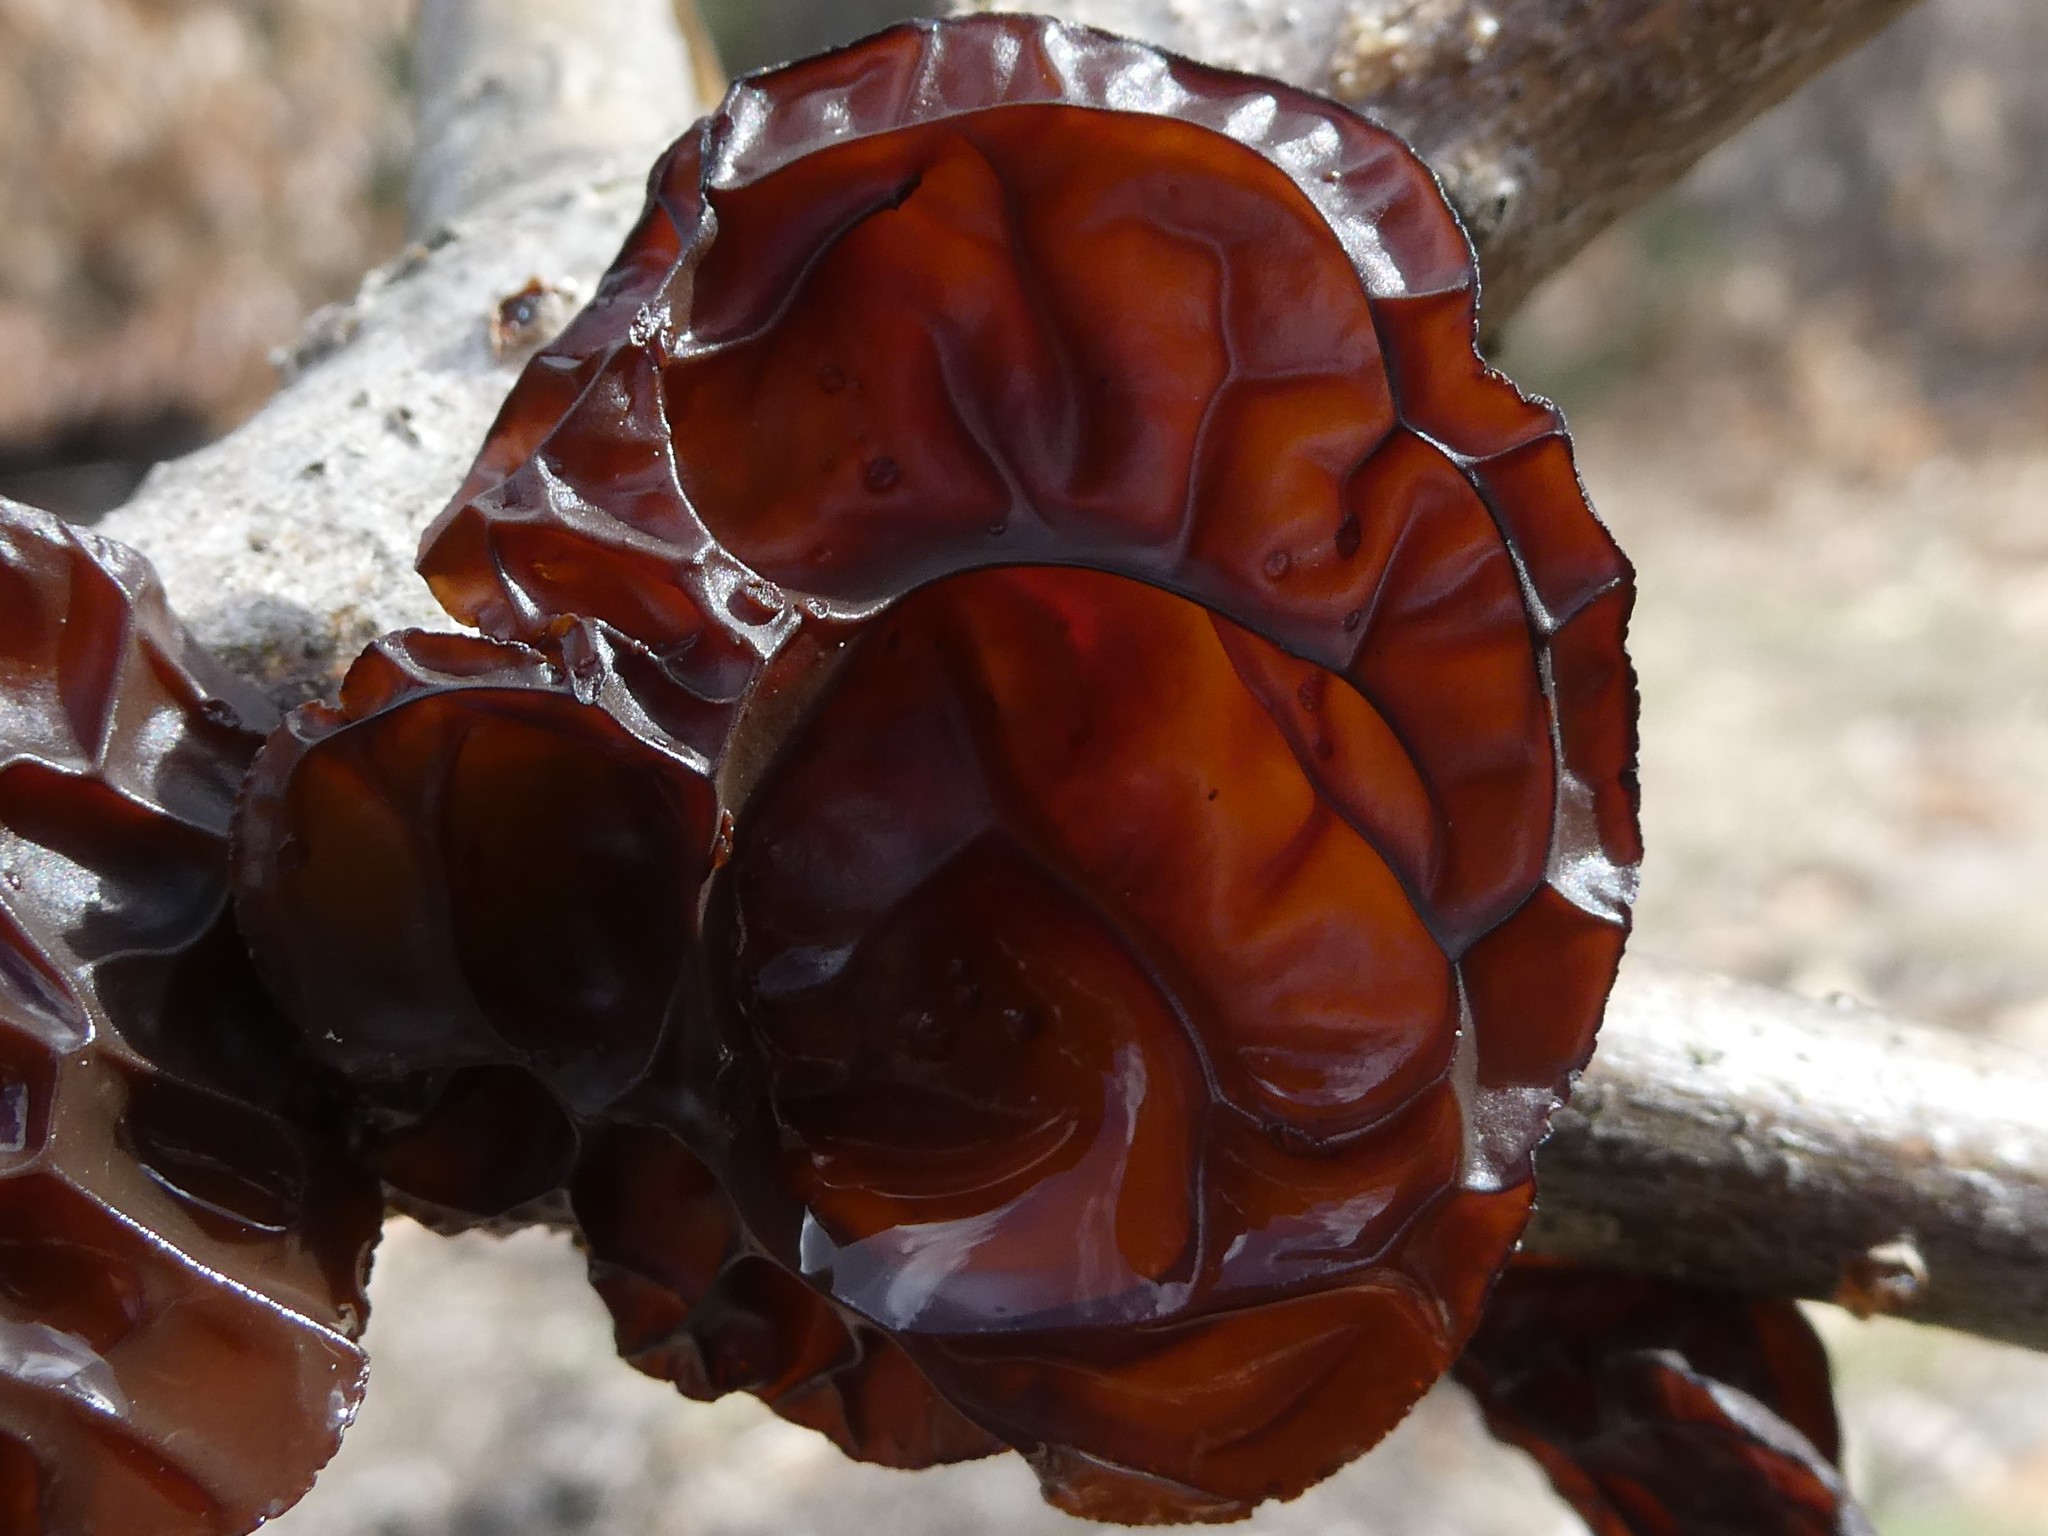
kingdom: Fungi
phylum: Basidiomycota
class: Agaricomycetes
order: Auriculariales
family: Auriculariaceae
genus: Exidia
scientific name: Exidia
